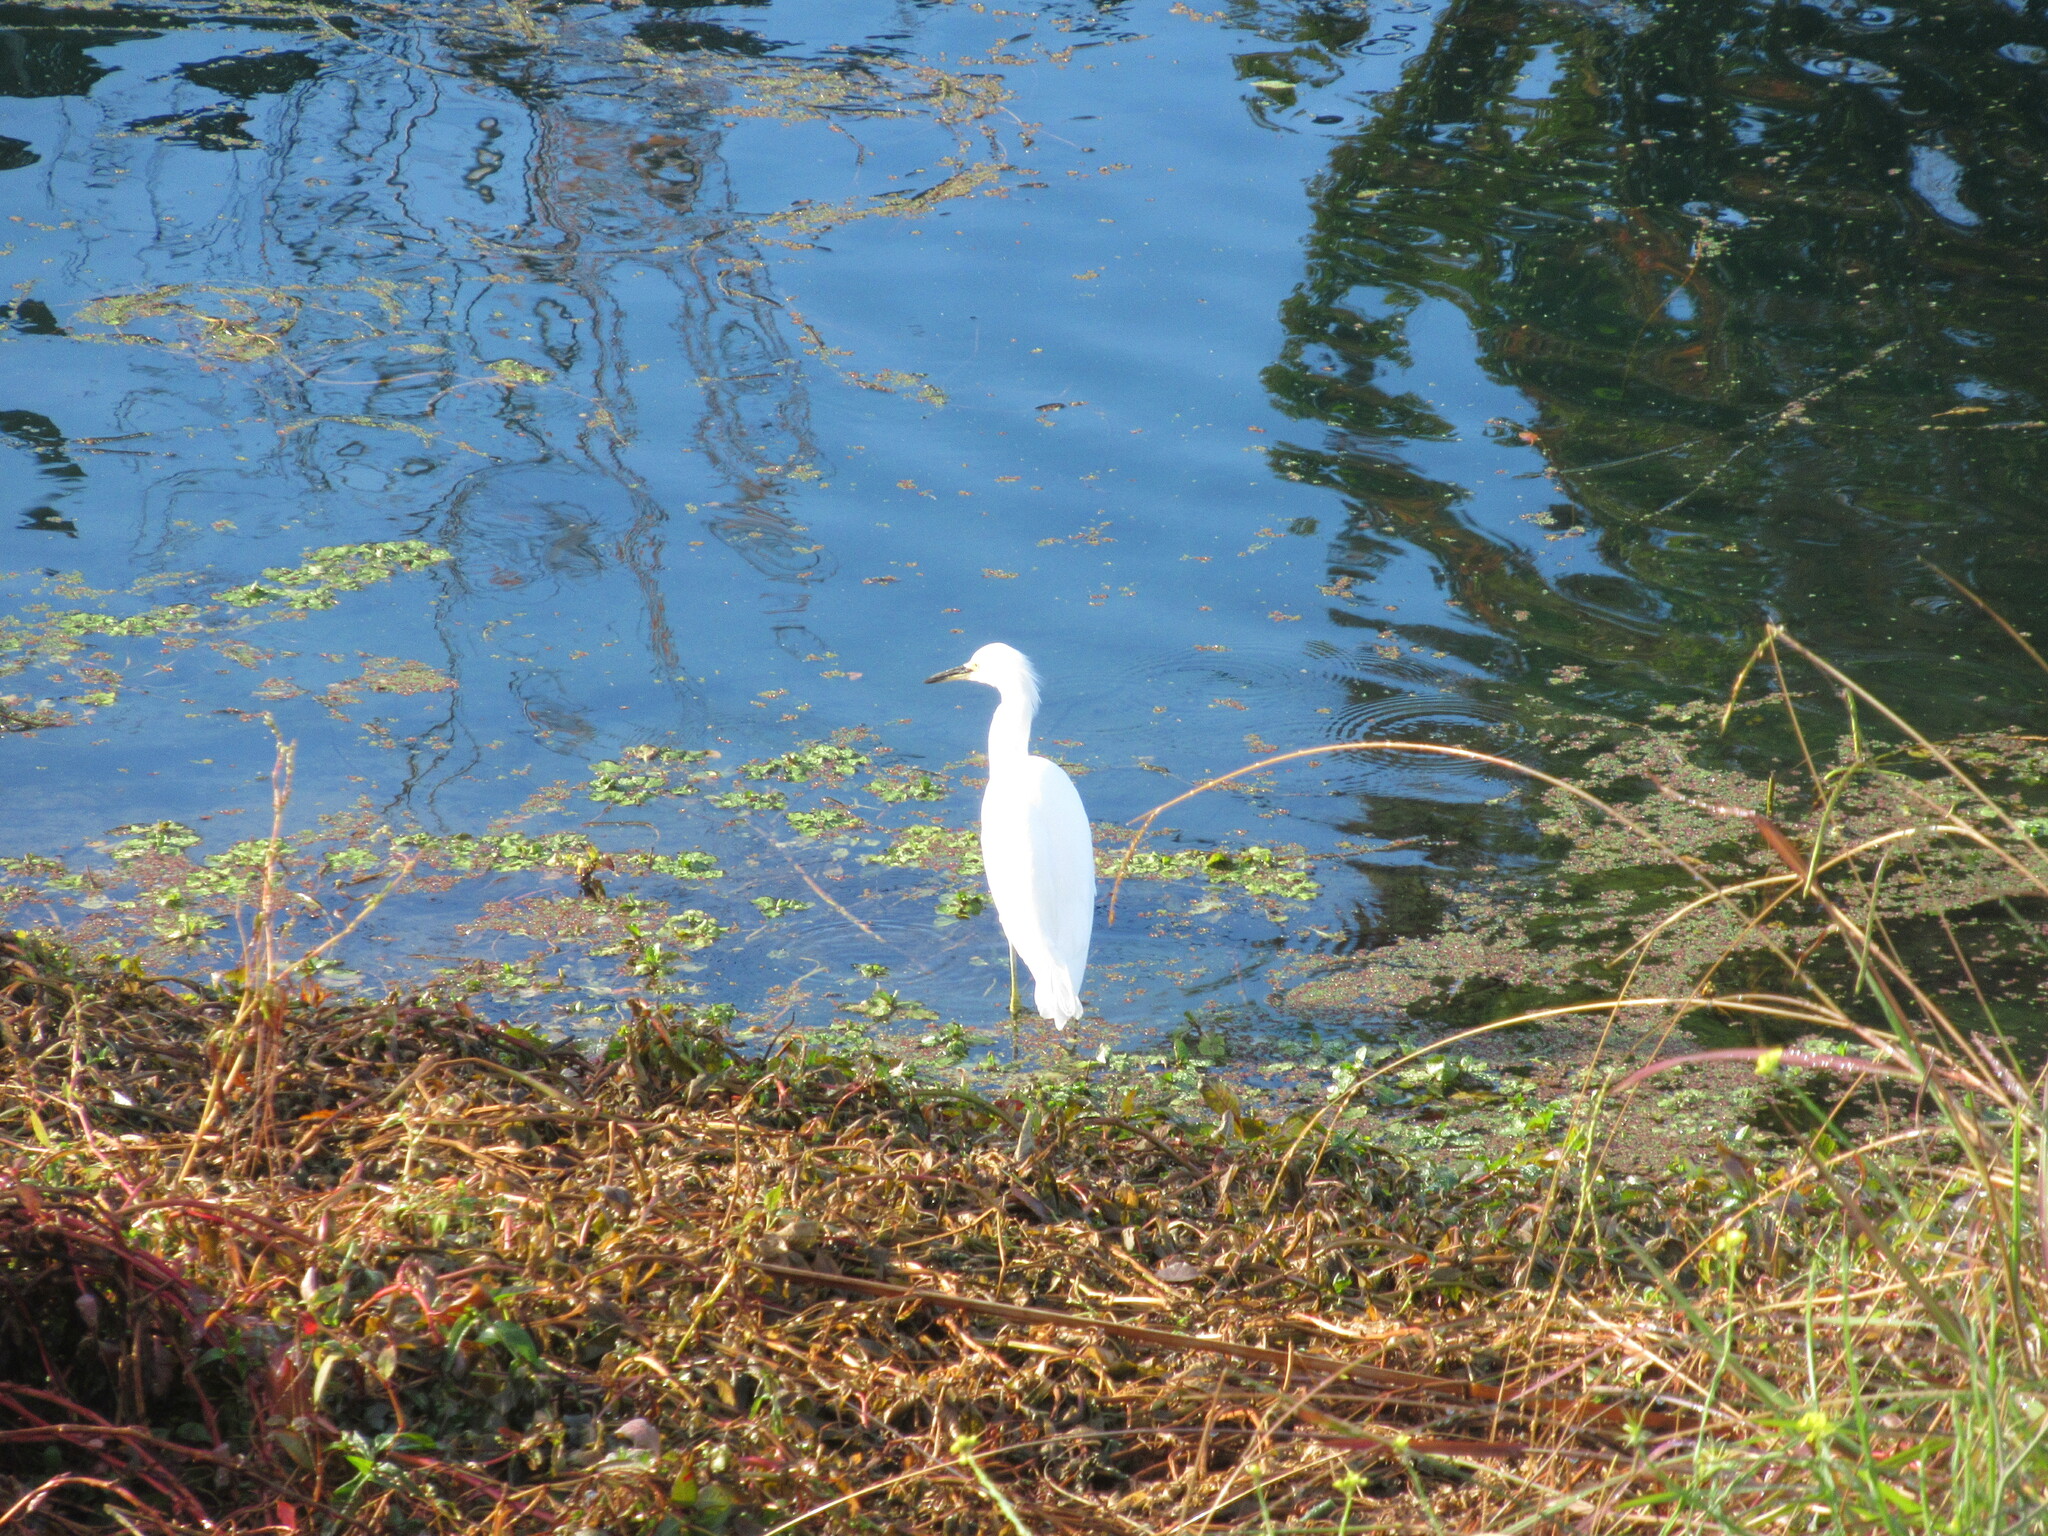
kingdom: Animalia
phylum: Chordata
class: Aves
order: Pelecaniformes
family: Ardeidae
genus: Egretta
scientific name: Egretta thula
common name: Snowy egret
